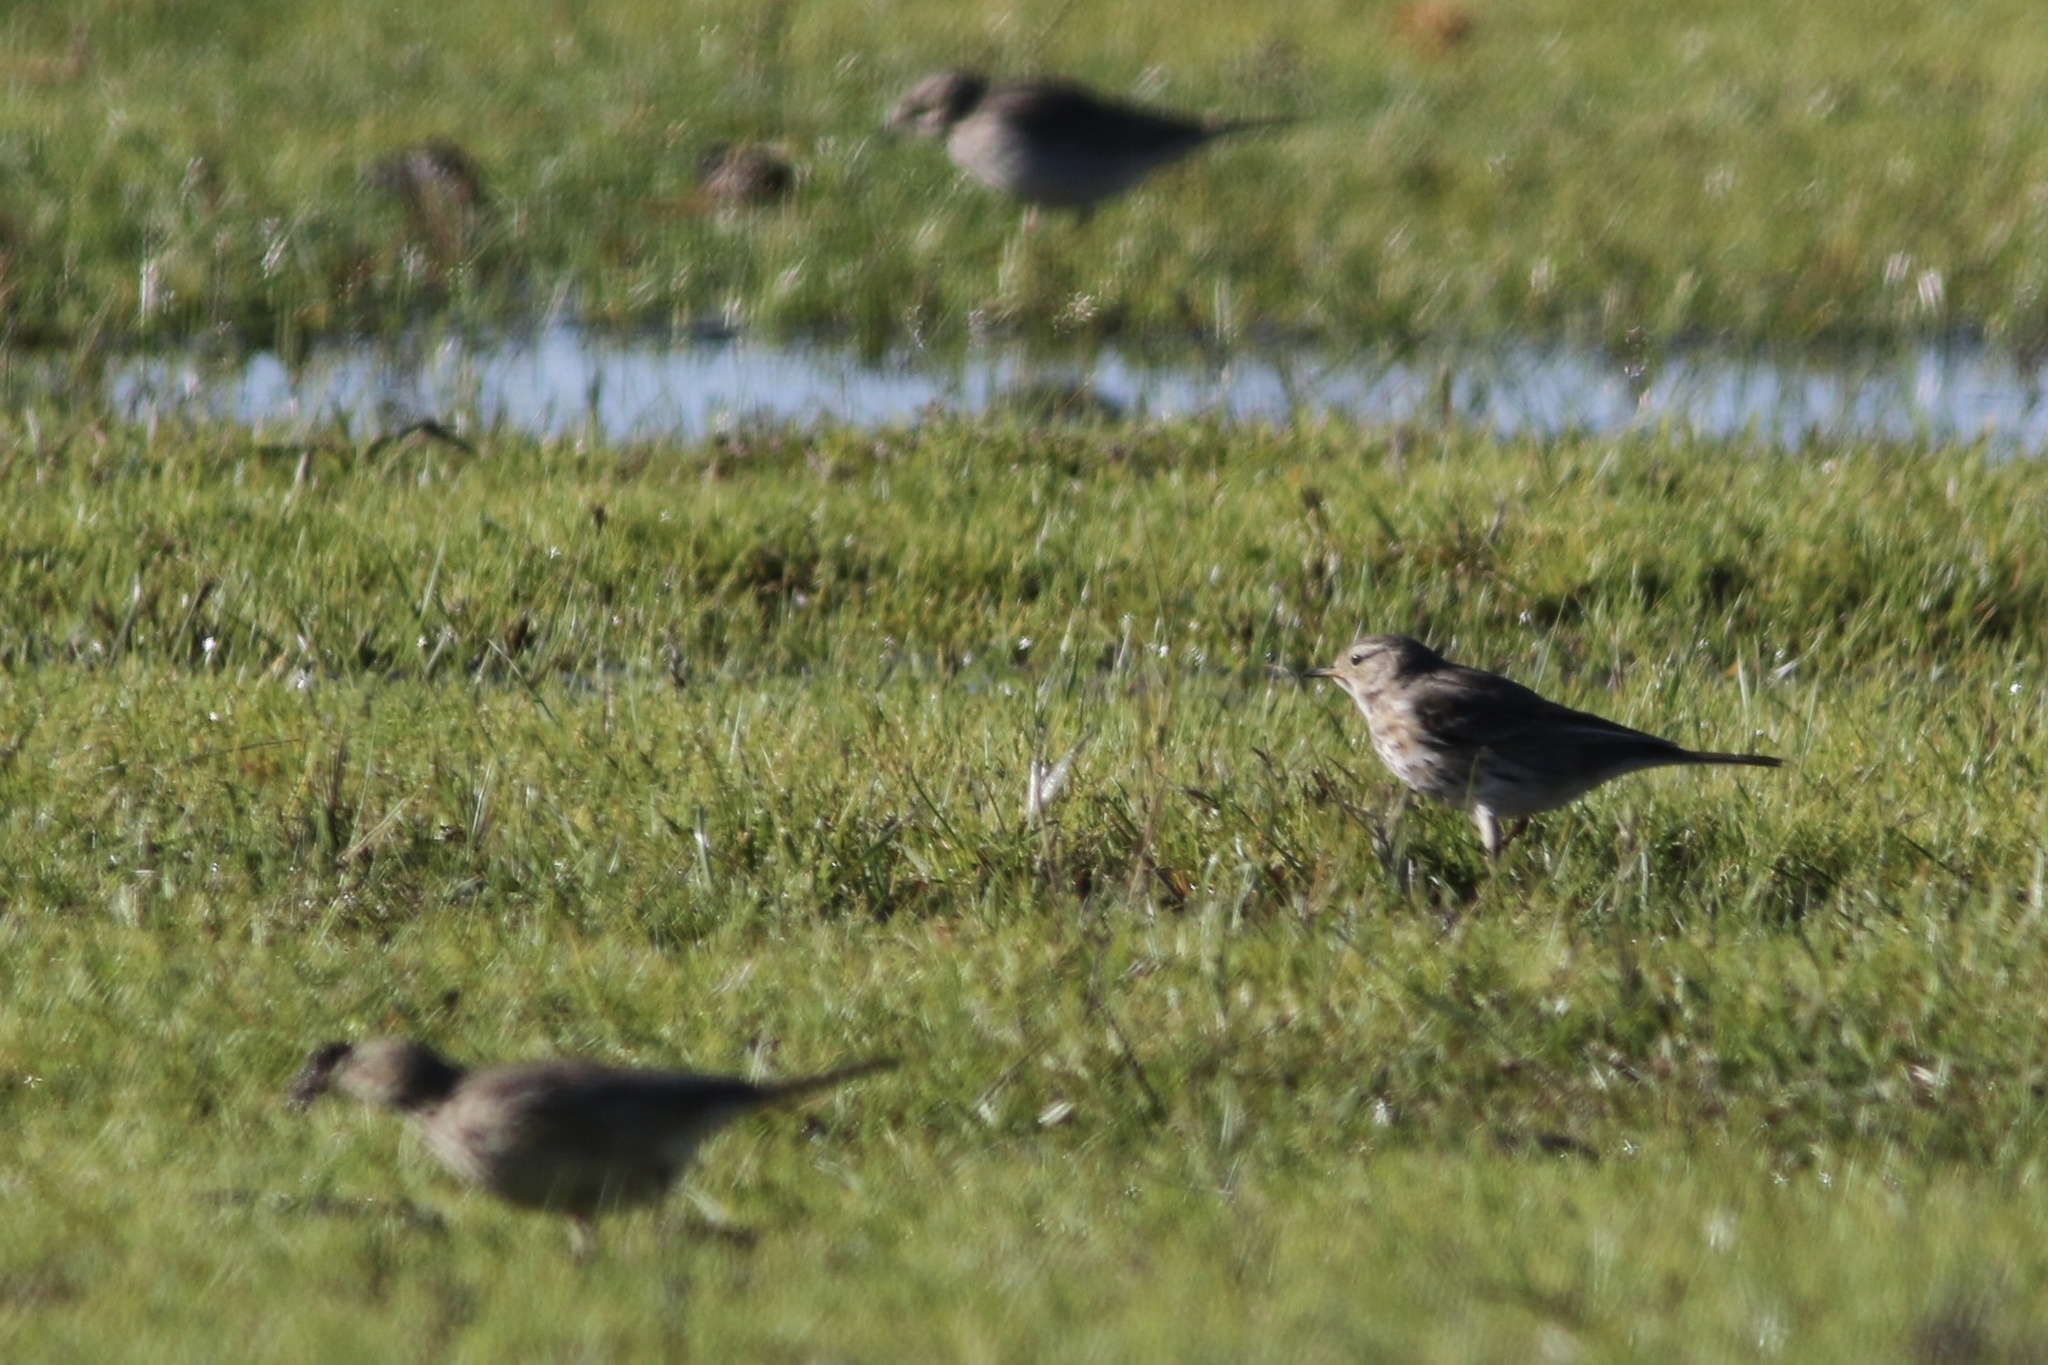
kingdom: Animalia
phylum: Chordata
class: Aves
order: Passeriformes
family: Motacillidae
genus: Anthus
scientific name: Anthus rubescens
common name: Buff-bellied pipit
